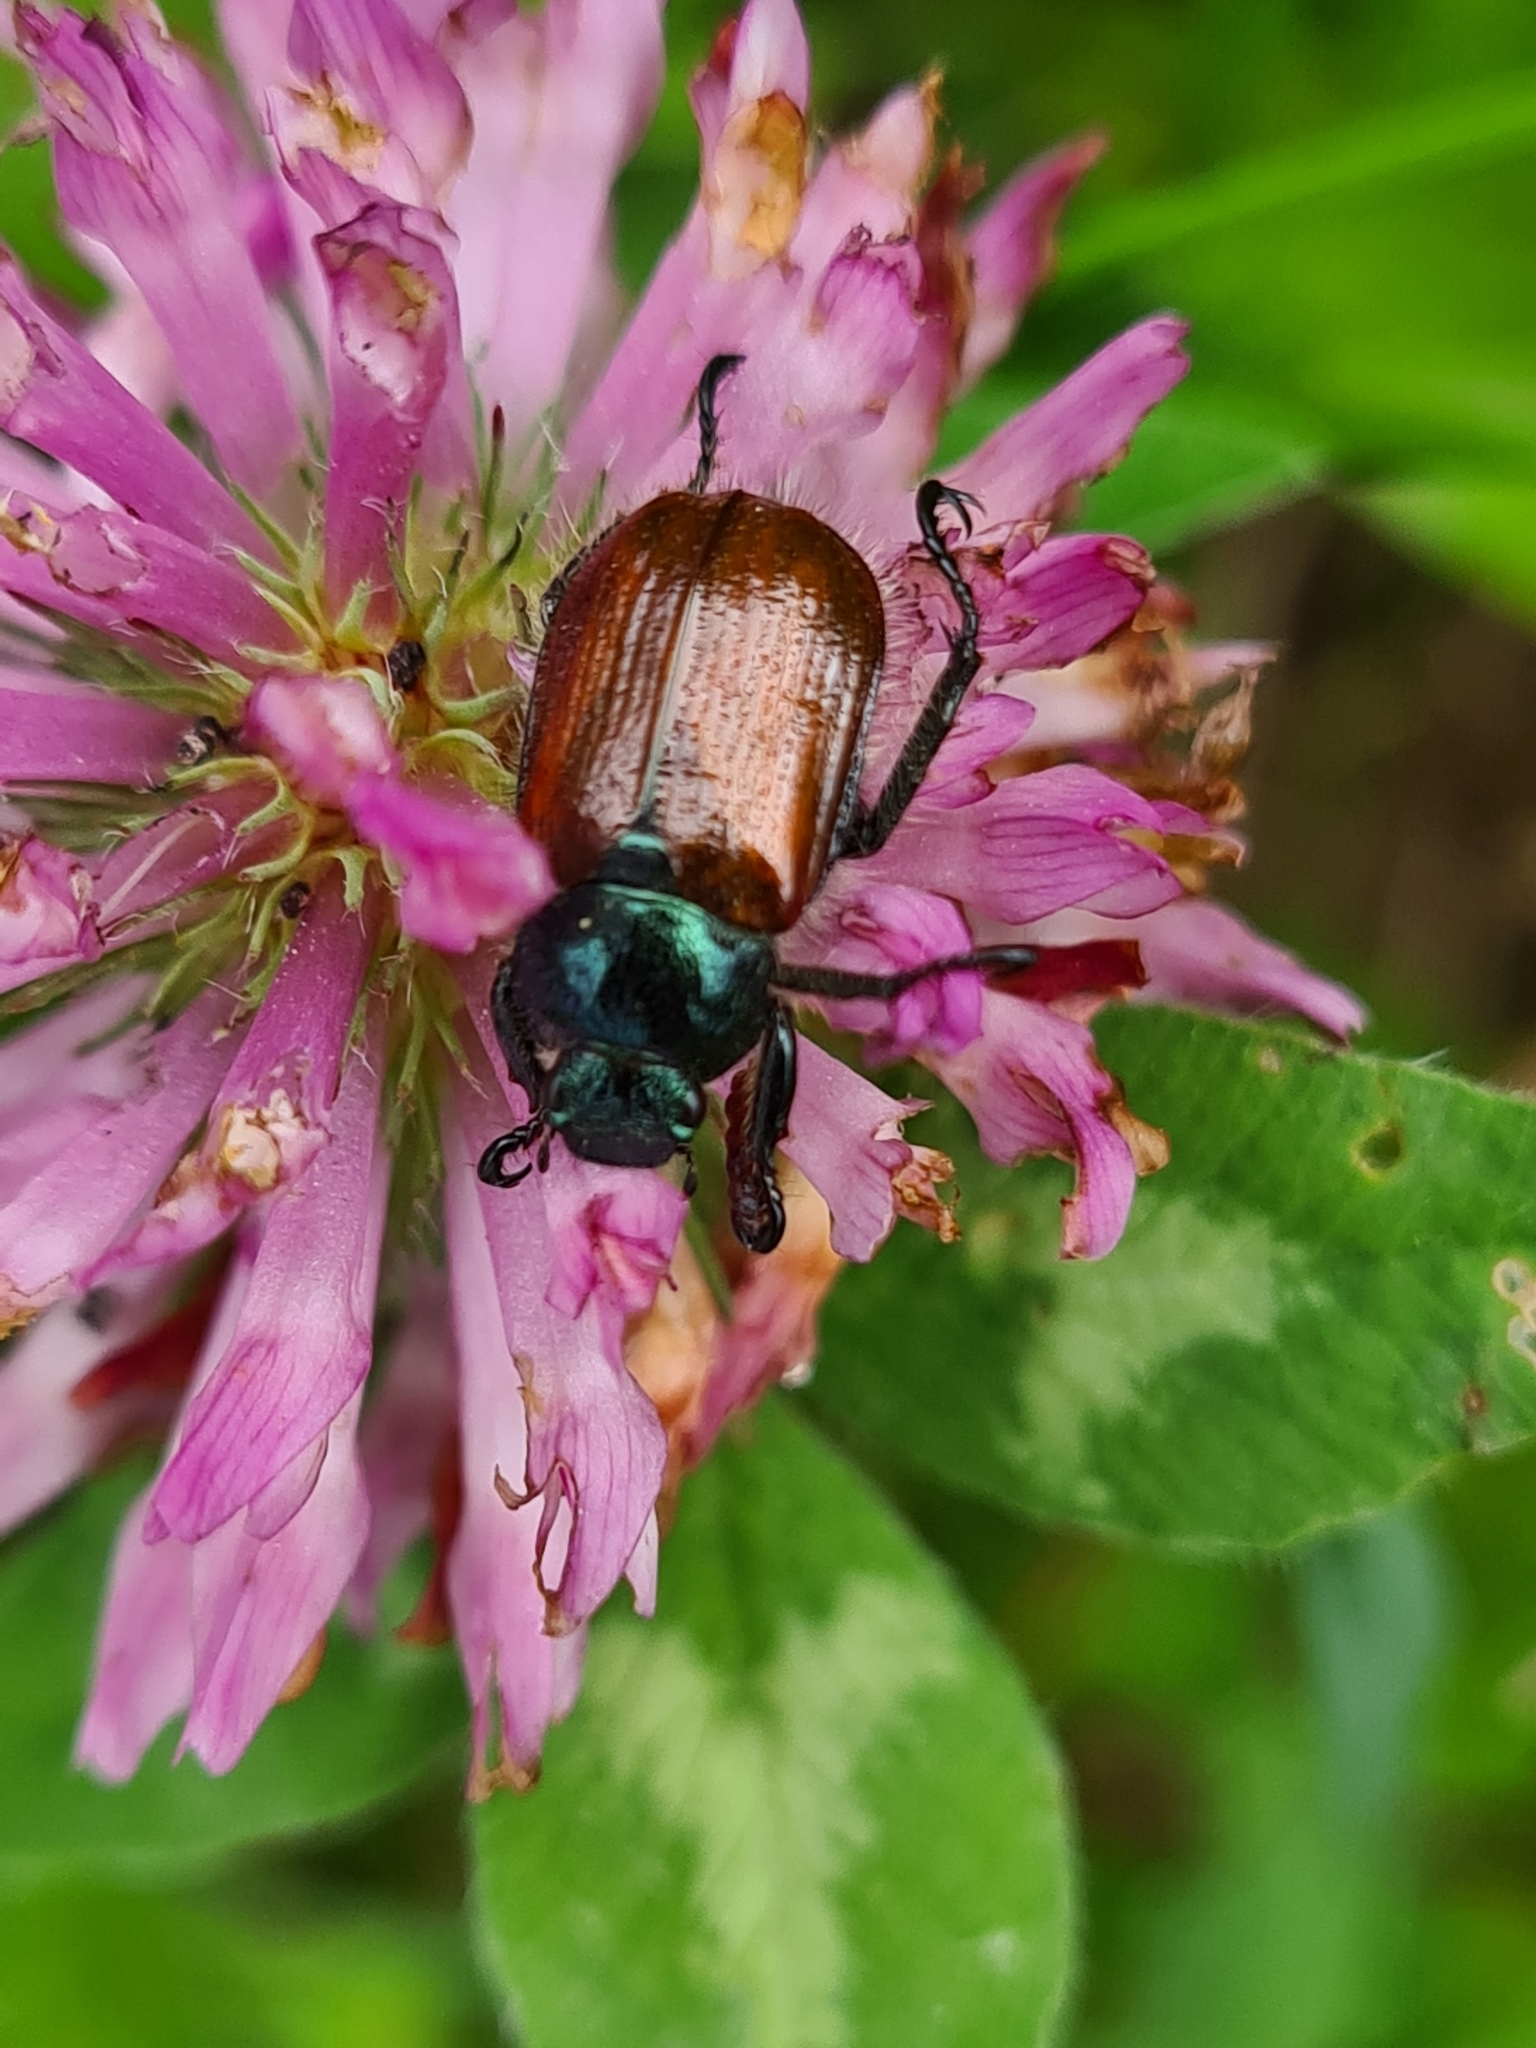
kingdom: Animalia
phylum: Arthropoda
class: Insecta
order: Coleoptera
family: Scarabaeidae
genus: Phyllopertha
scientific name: Phyllopertha horticola
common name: Garden chafer
